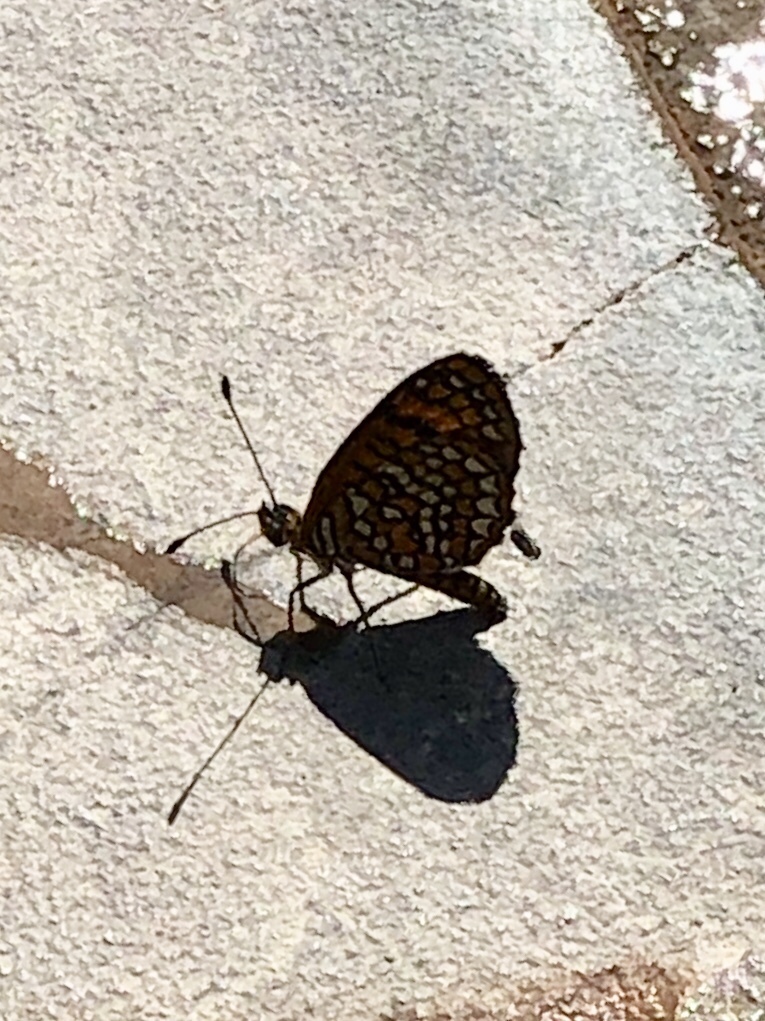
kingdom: Animalia
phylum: Arthropoda
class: Insecta
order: Lepidoptera
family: Nymphalidae
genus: Texola
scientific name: Texola
